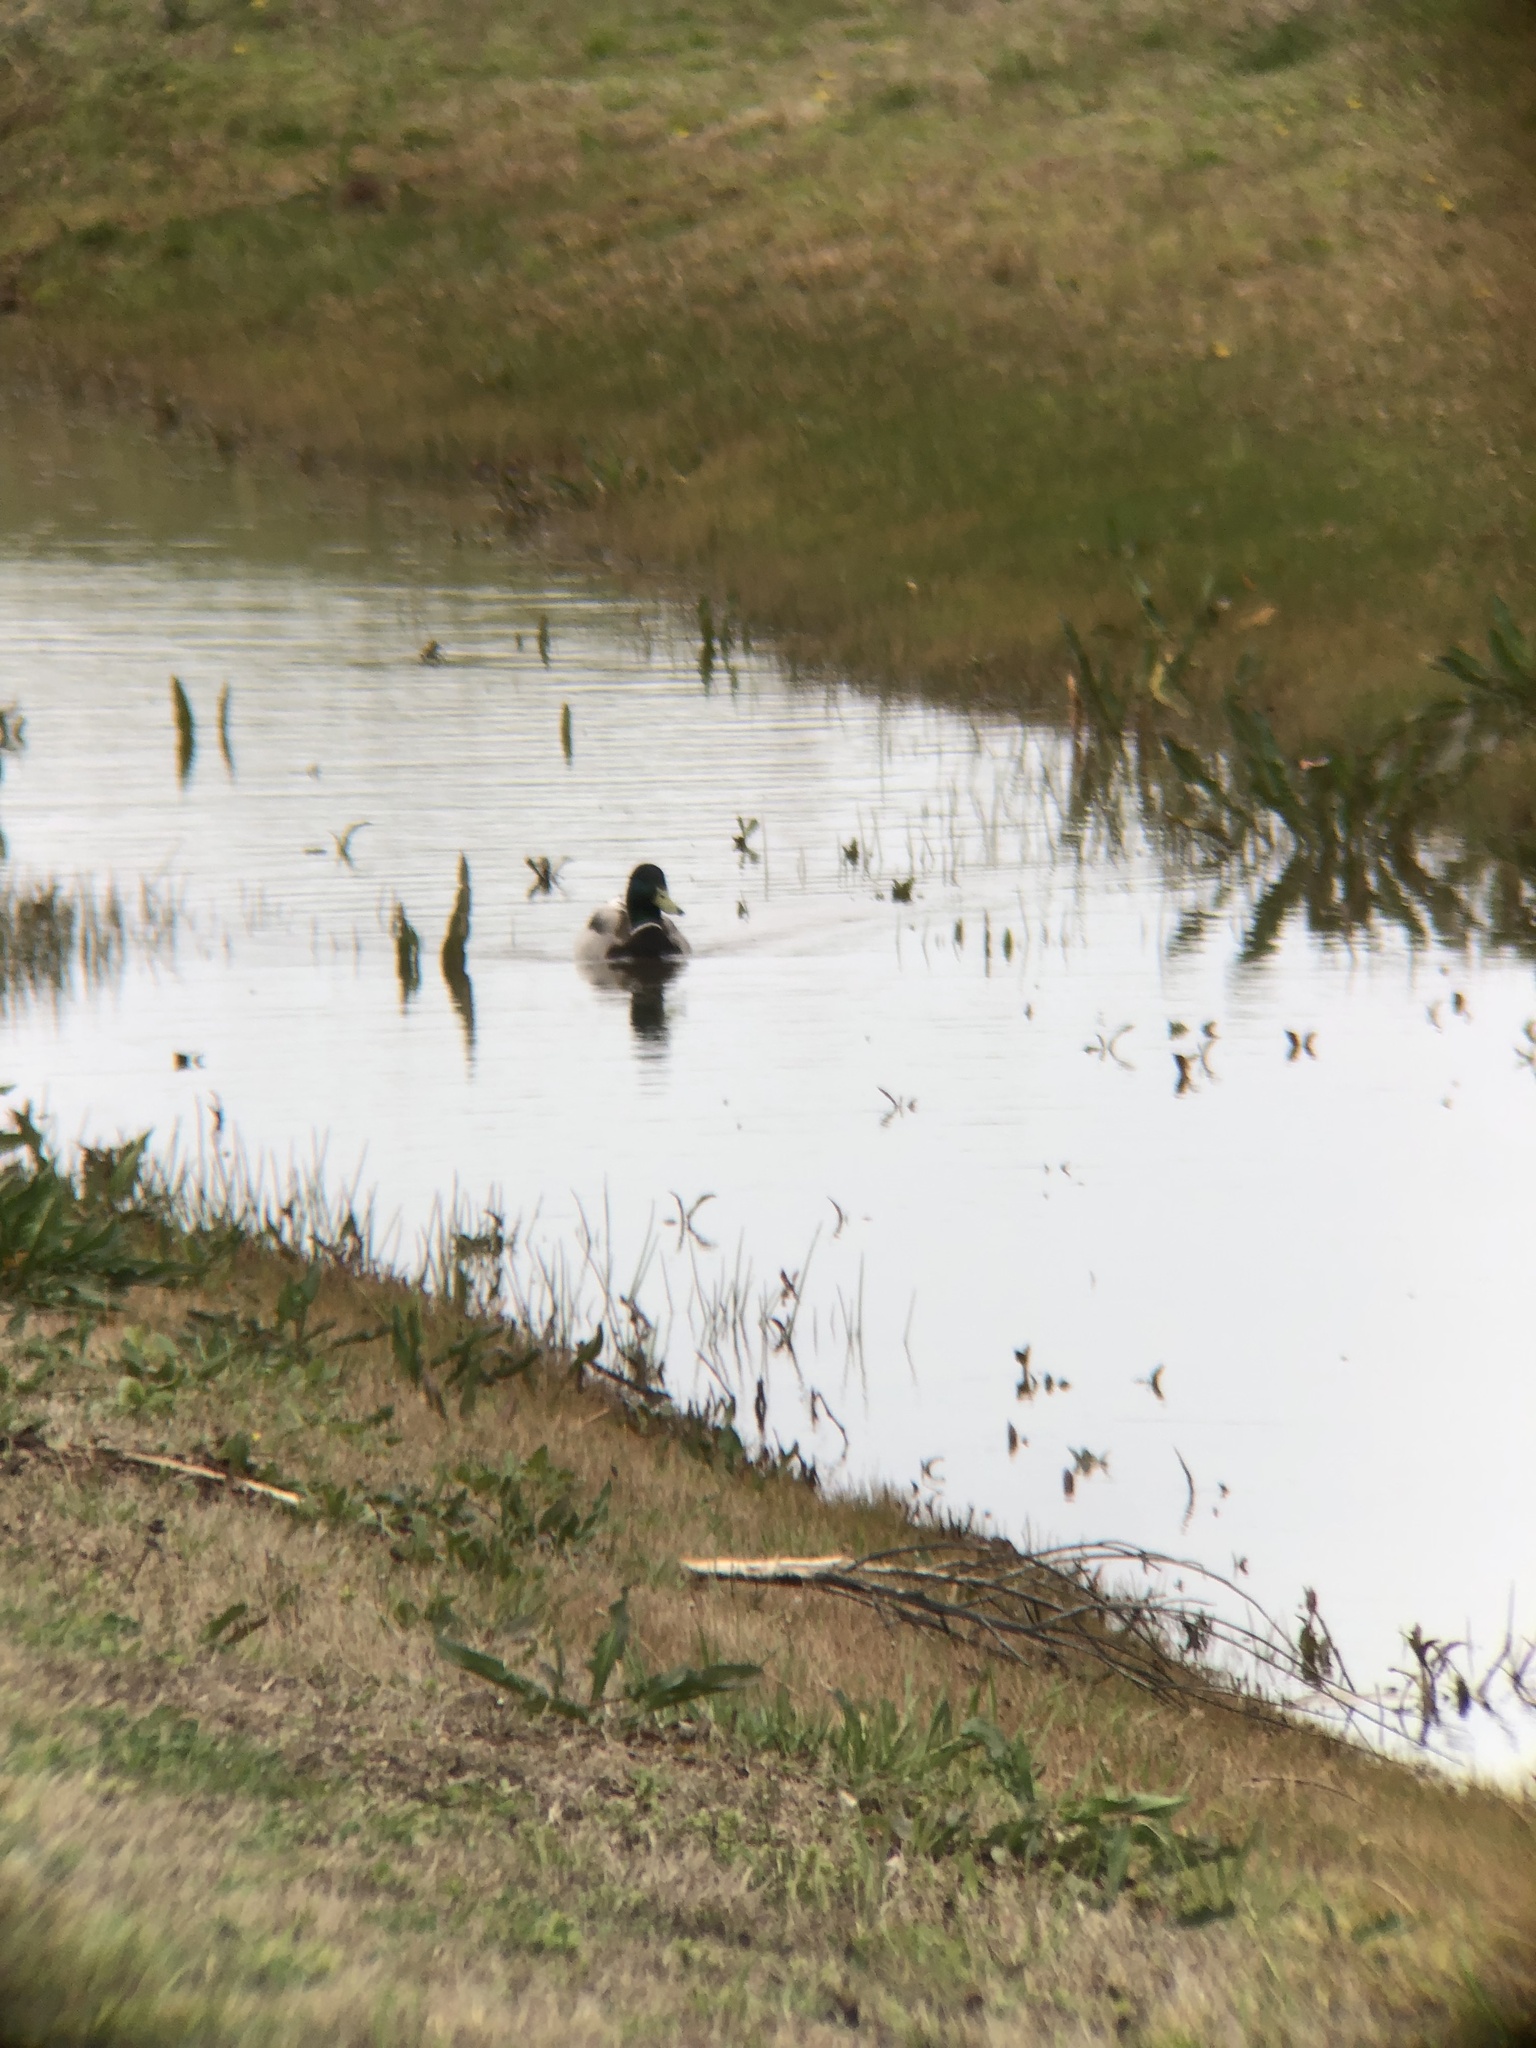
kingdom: Animalia
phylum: Chordata
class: Aves
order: Anseriformes
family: Anatidae
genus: Anas
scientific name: Anas platyrhynchos
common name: Mallard
